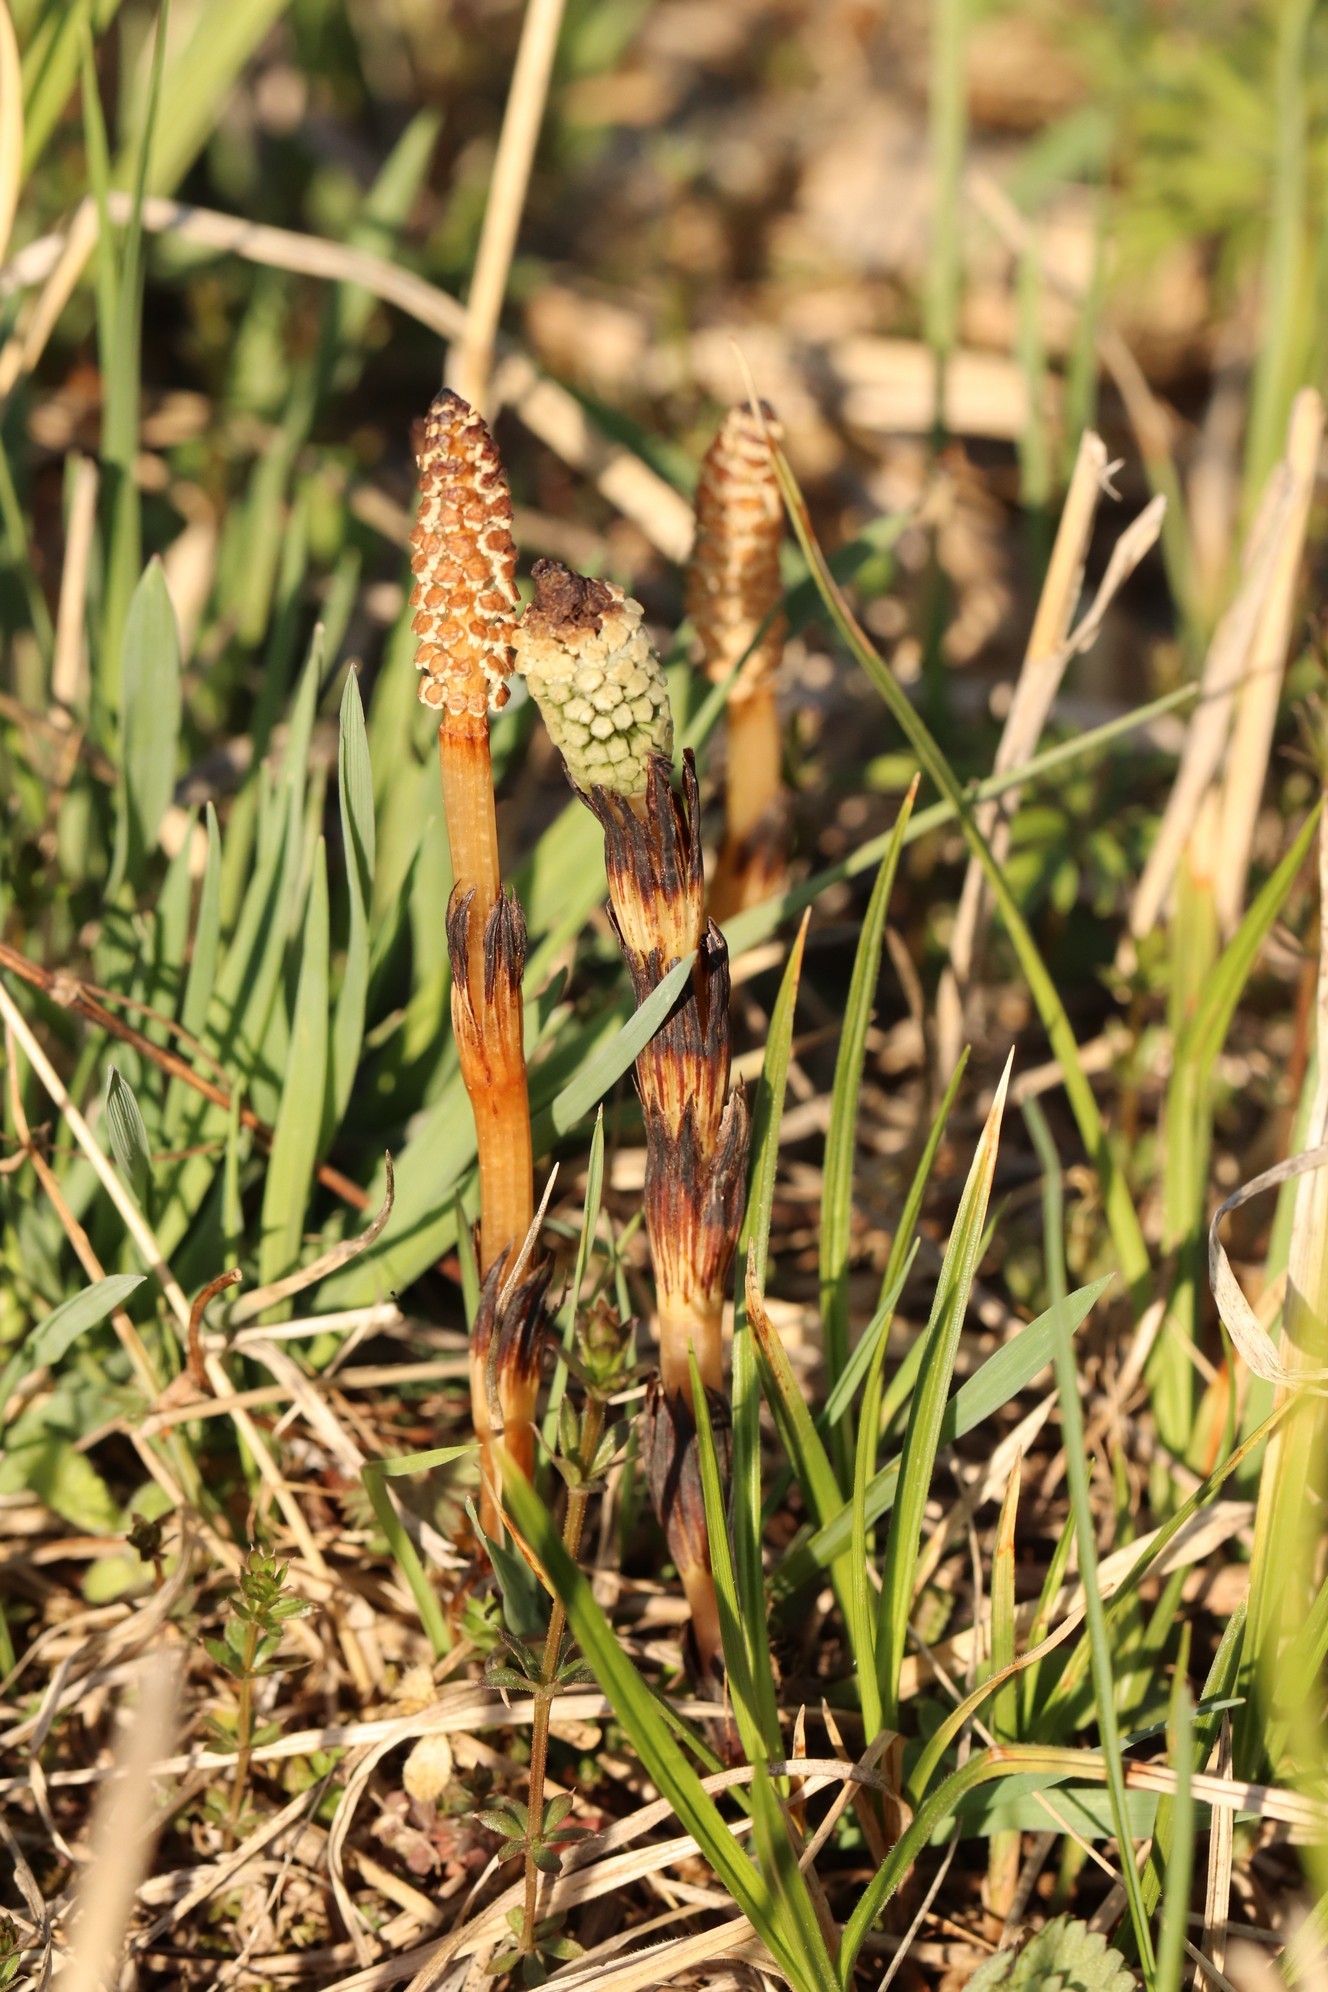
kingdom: Plantae
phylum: Tracheophyta
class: Polypodiopsida
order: Equisetales
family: Equisetaceae
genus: Equisetum
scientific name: Equisetum arvense
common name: Field horsetail
